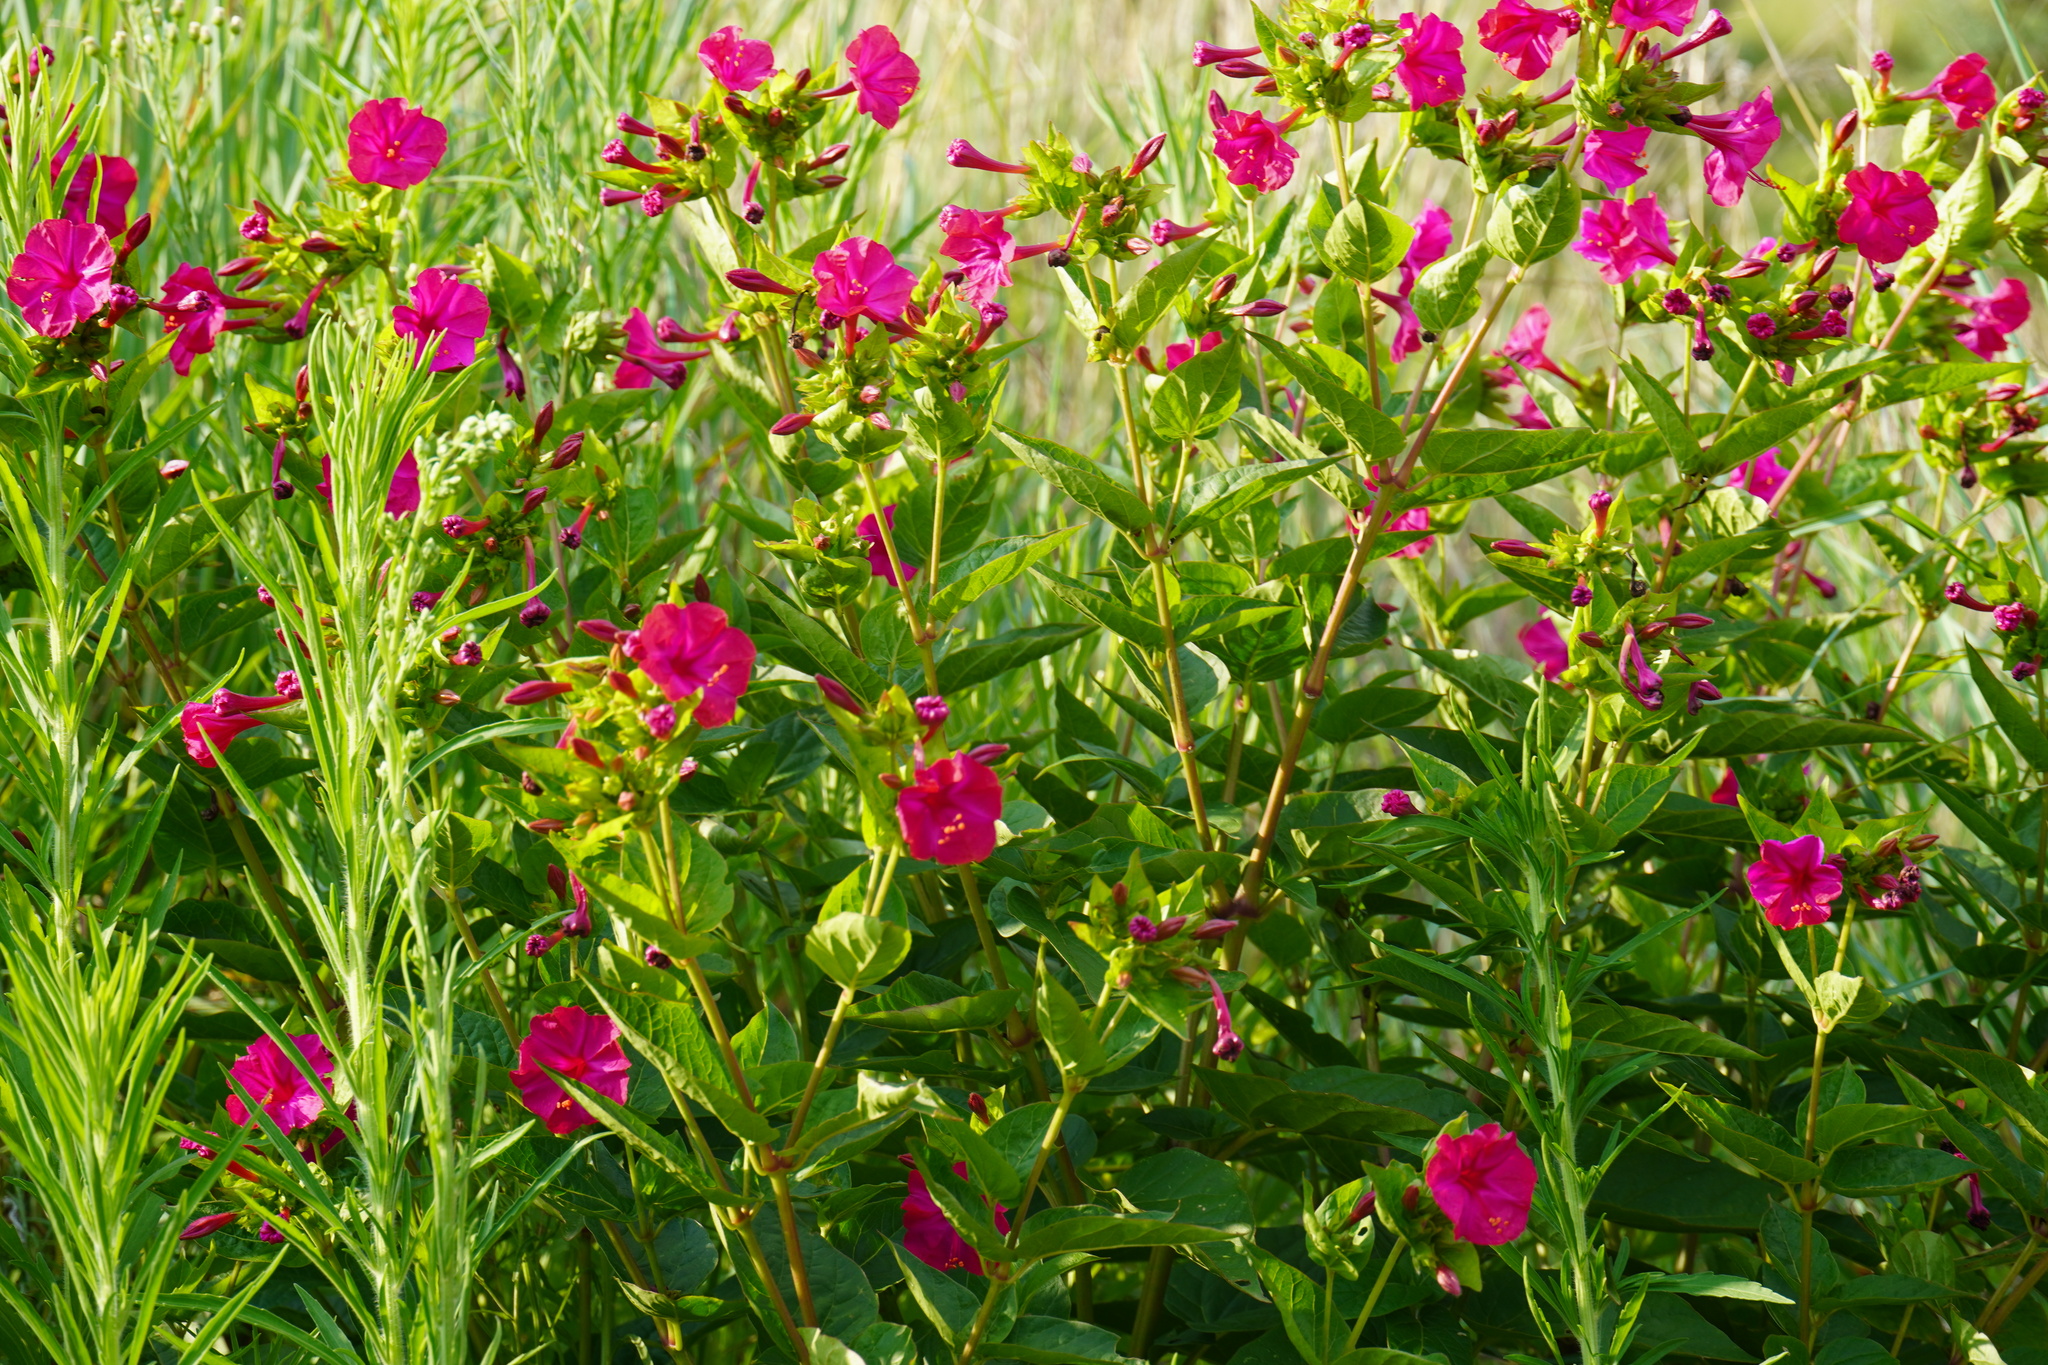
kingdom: Plantae
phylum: Tracheophyta
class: Magnoliopsida
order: Caryophyllales
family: Nyctaginaceae
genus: Mirabilis
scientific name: Mirabilis jalapa
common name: Marvel-of-peru
